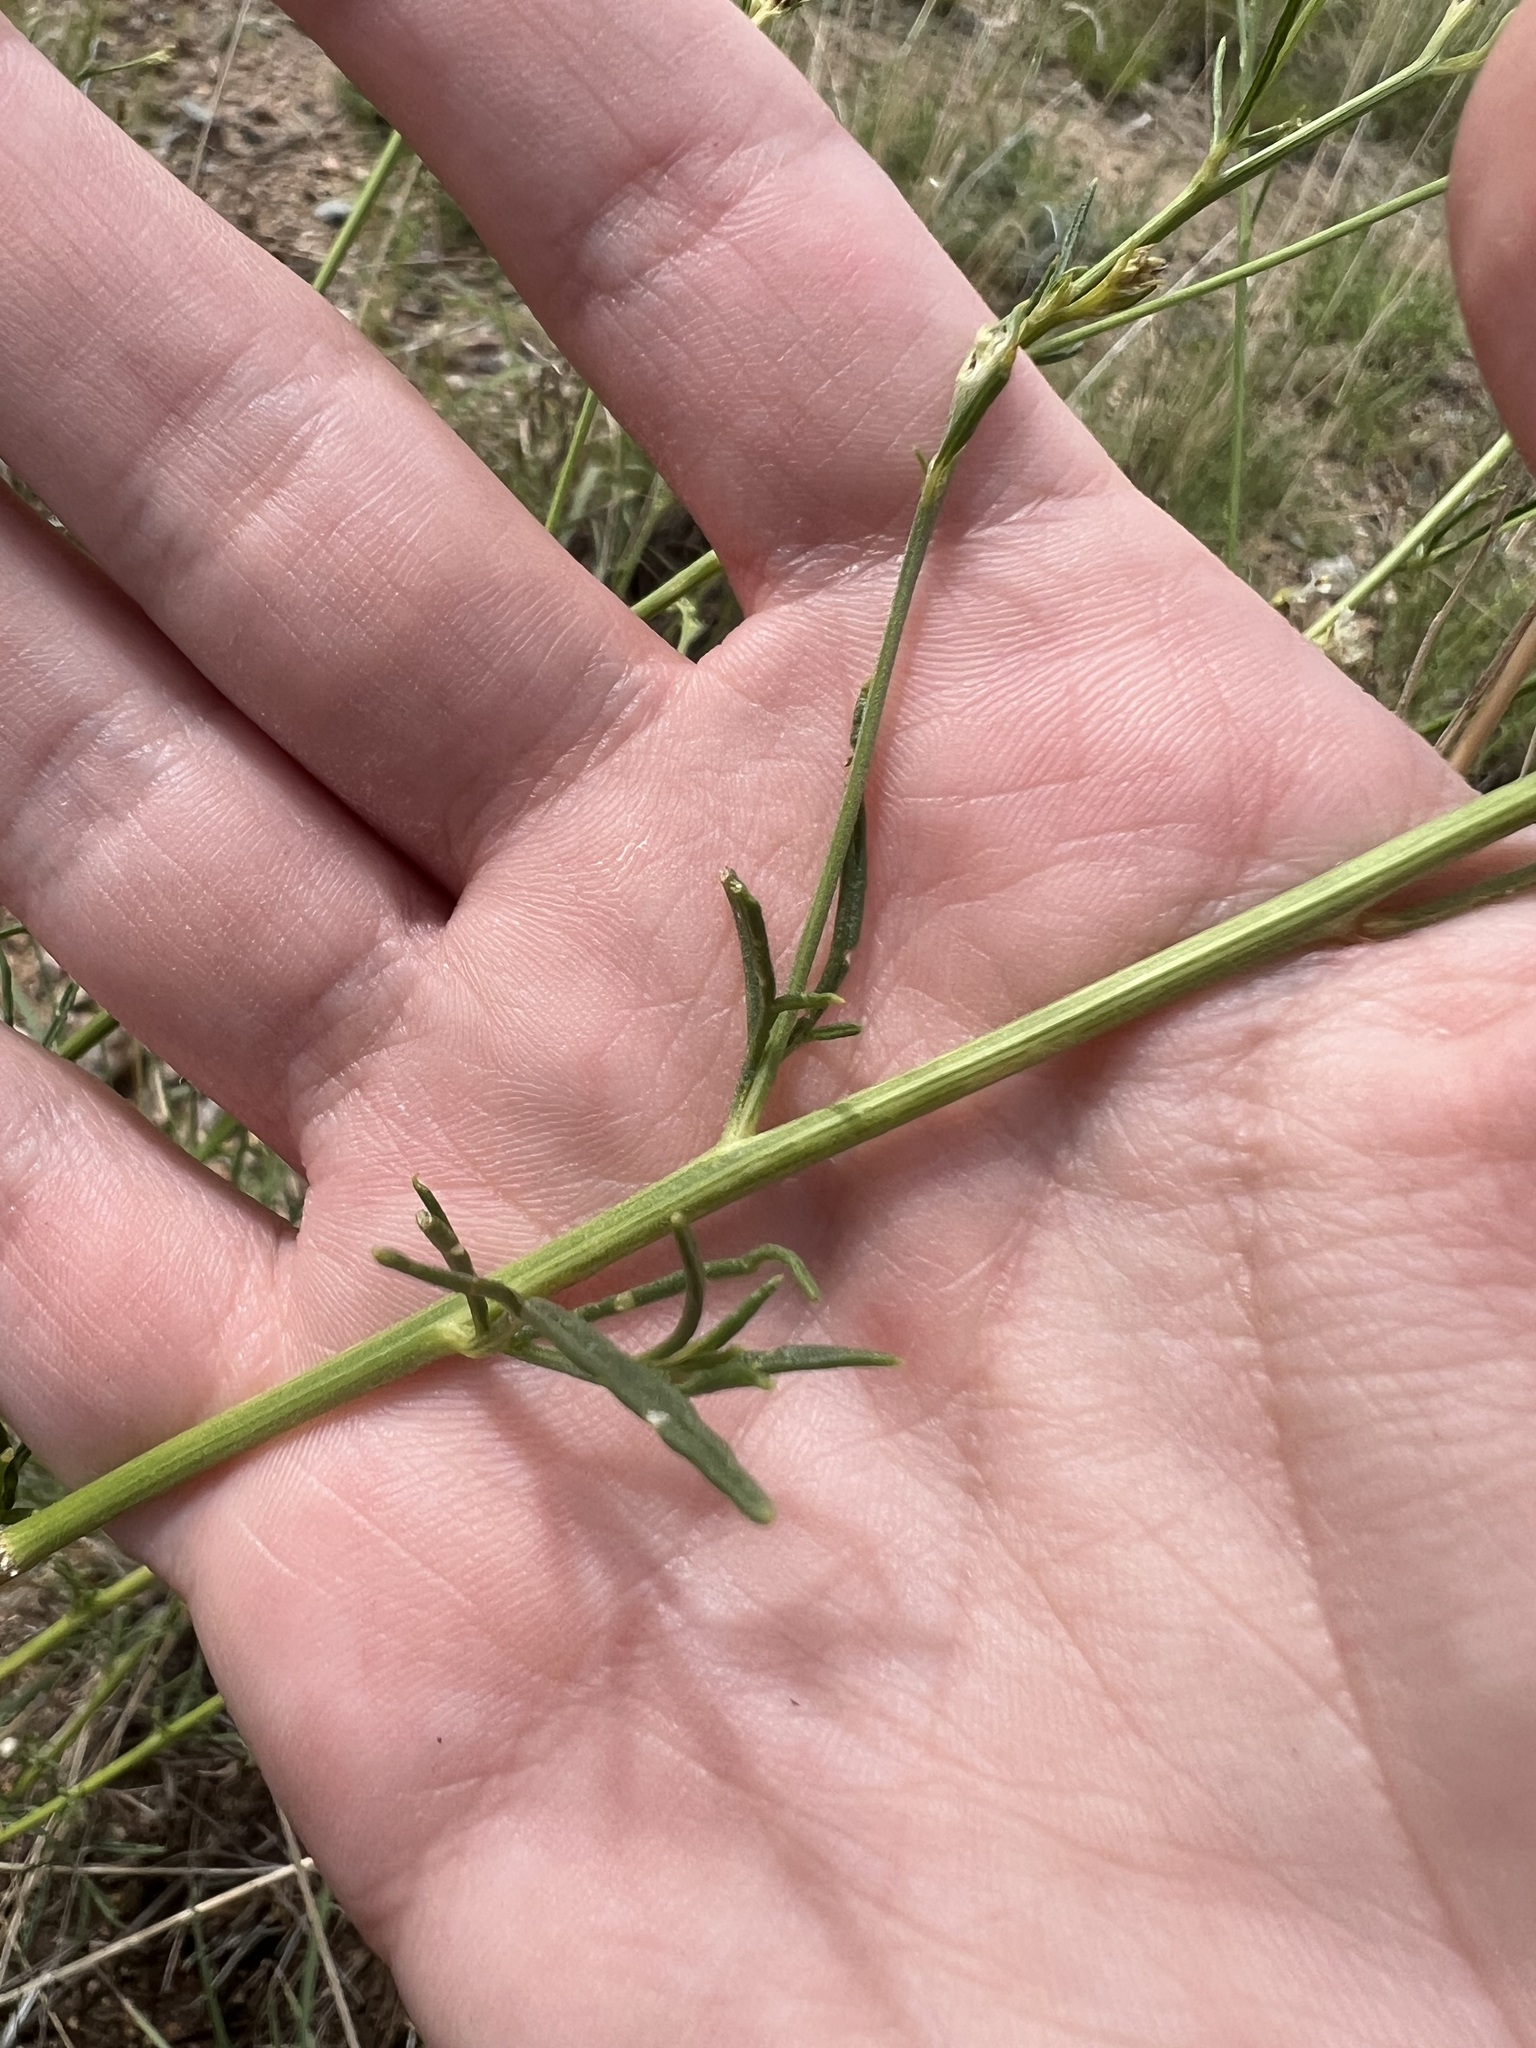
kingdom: Plantae
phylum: Tracheophyta
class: Magnoliopsida
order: Asterales
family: Asteraceae
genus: Hymenothrix
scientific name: Hymenothrix loomisii
